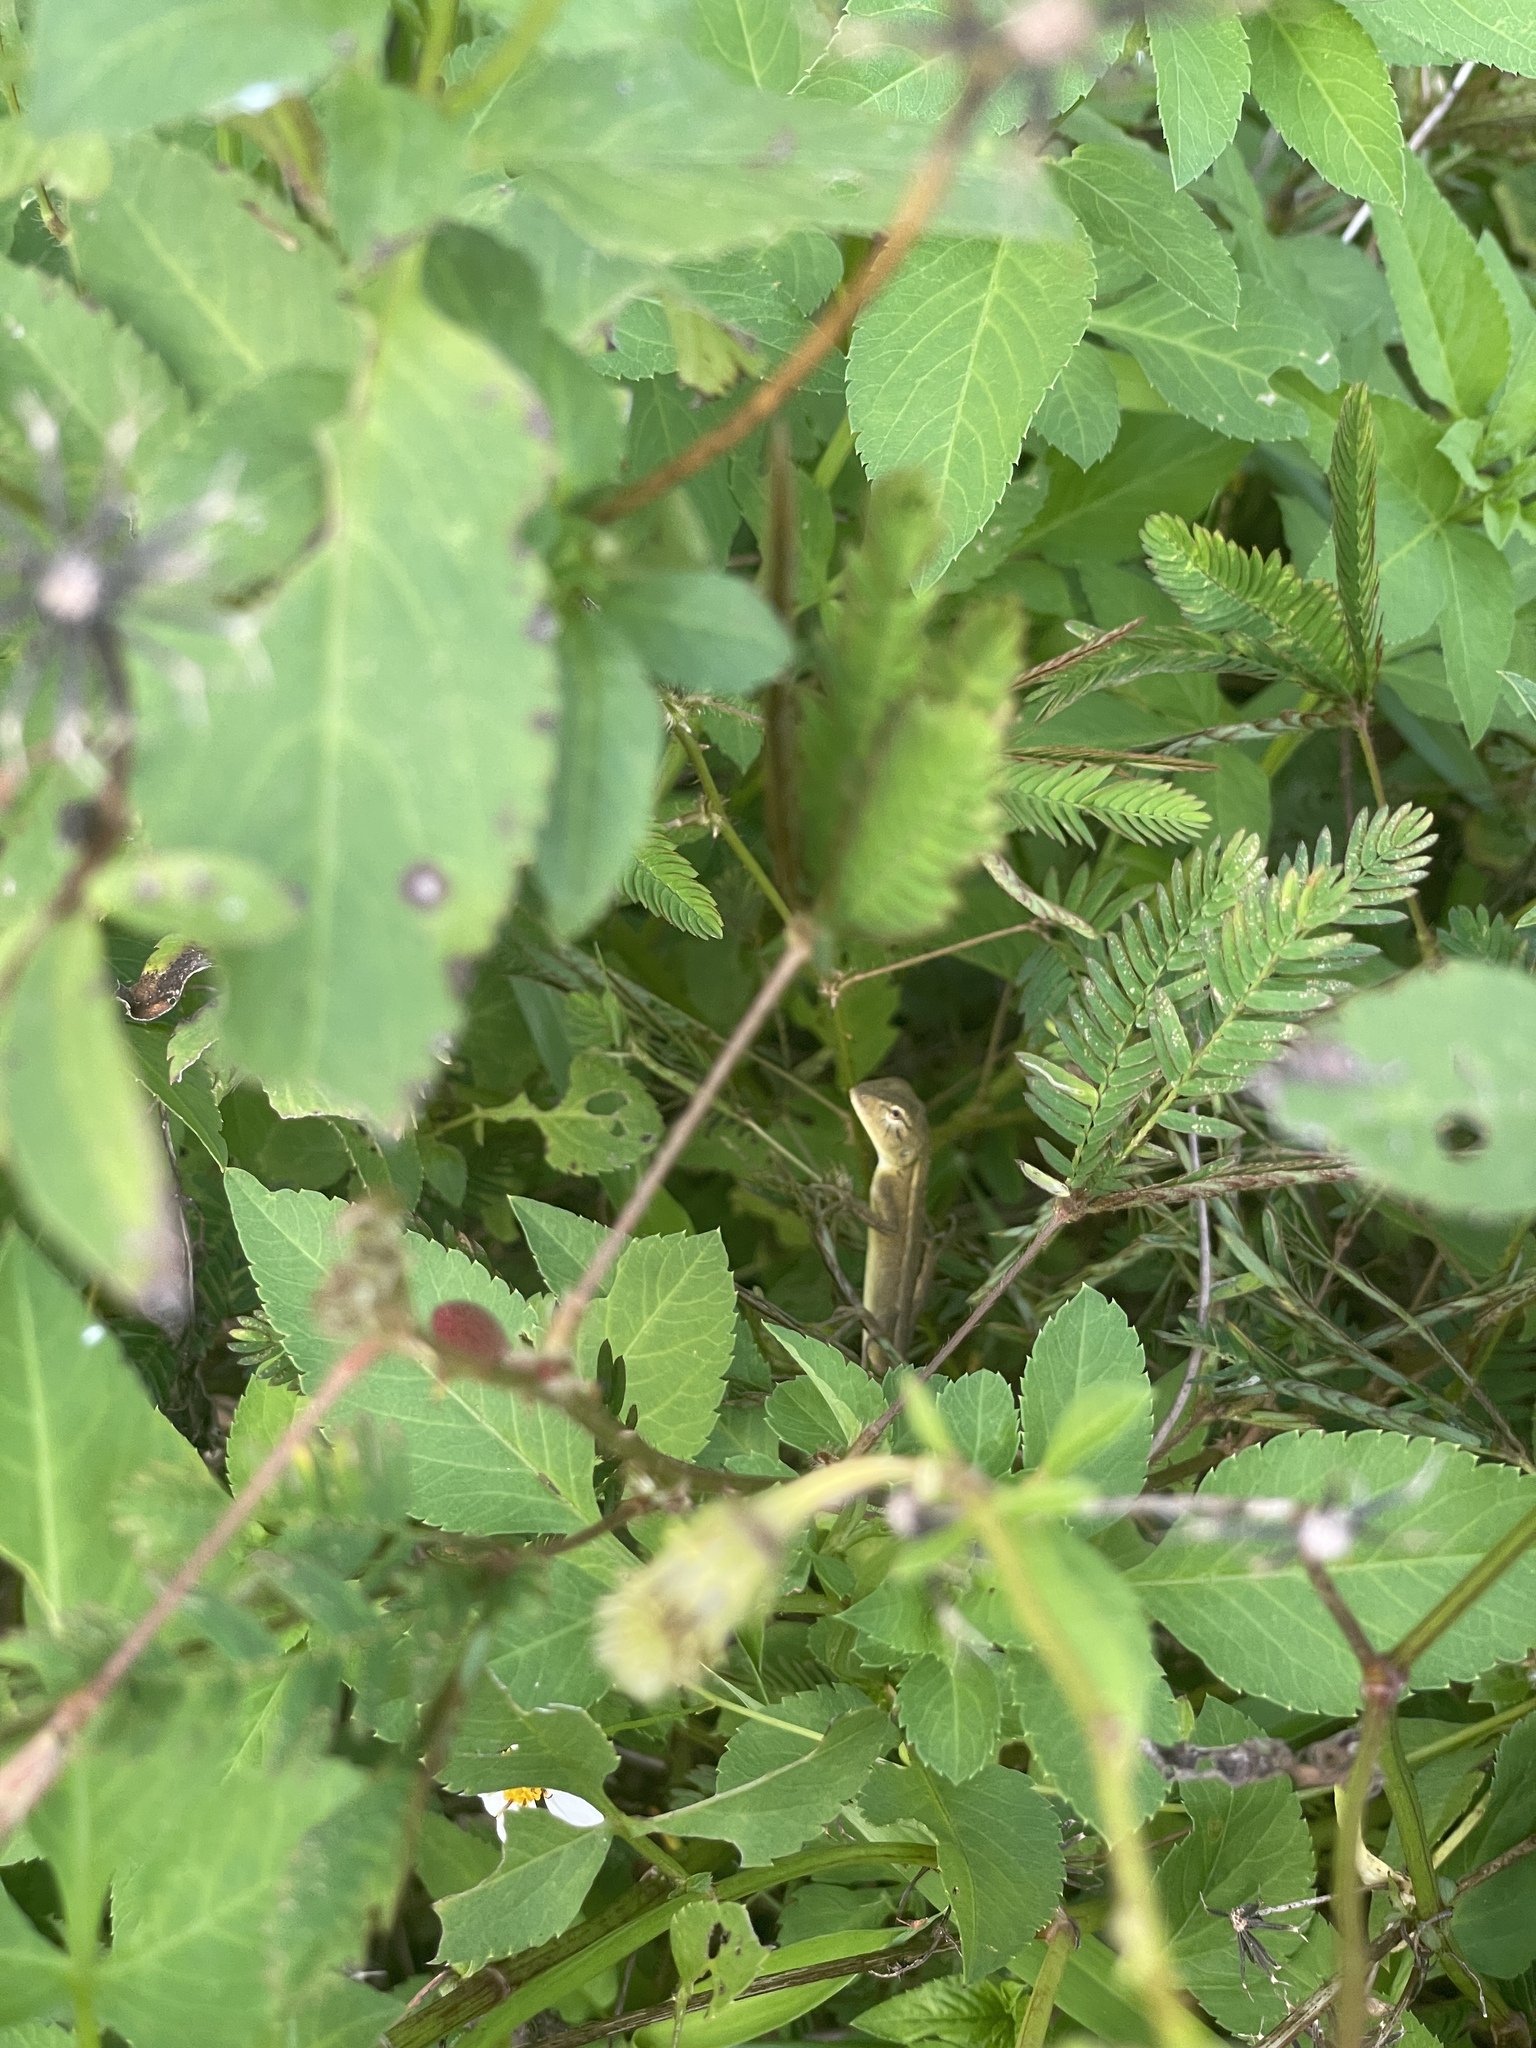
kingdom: Animalia
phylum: Chordata
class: Squamata
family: Agamidae
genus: Calotes
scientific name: Calotes versicolor
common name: Oriental garden lizard
